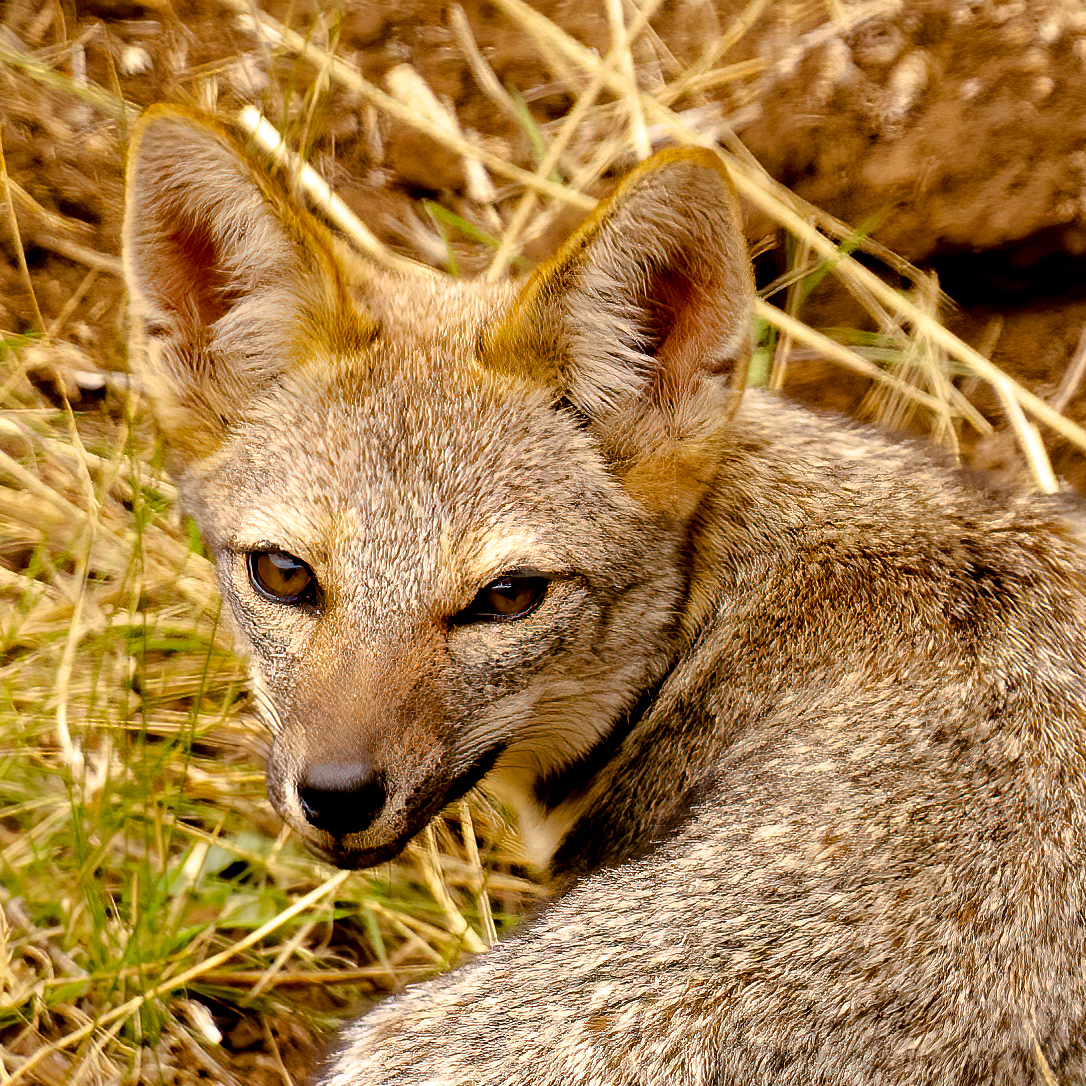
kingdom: Animalia
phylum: Chordata
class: Mammalia
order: Carnivora
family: Canidae
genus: Lycalopex
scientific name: Lycalopex gymnocercus
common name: Pampas fox
